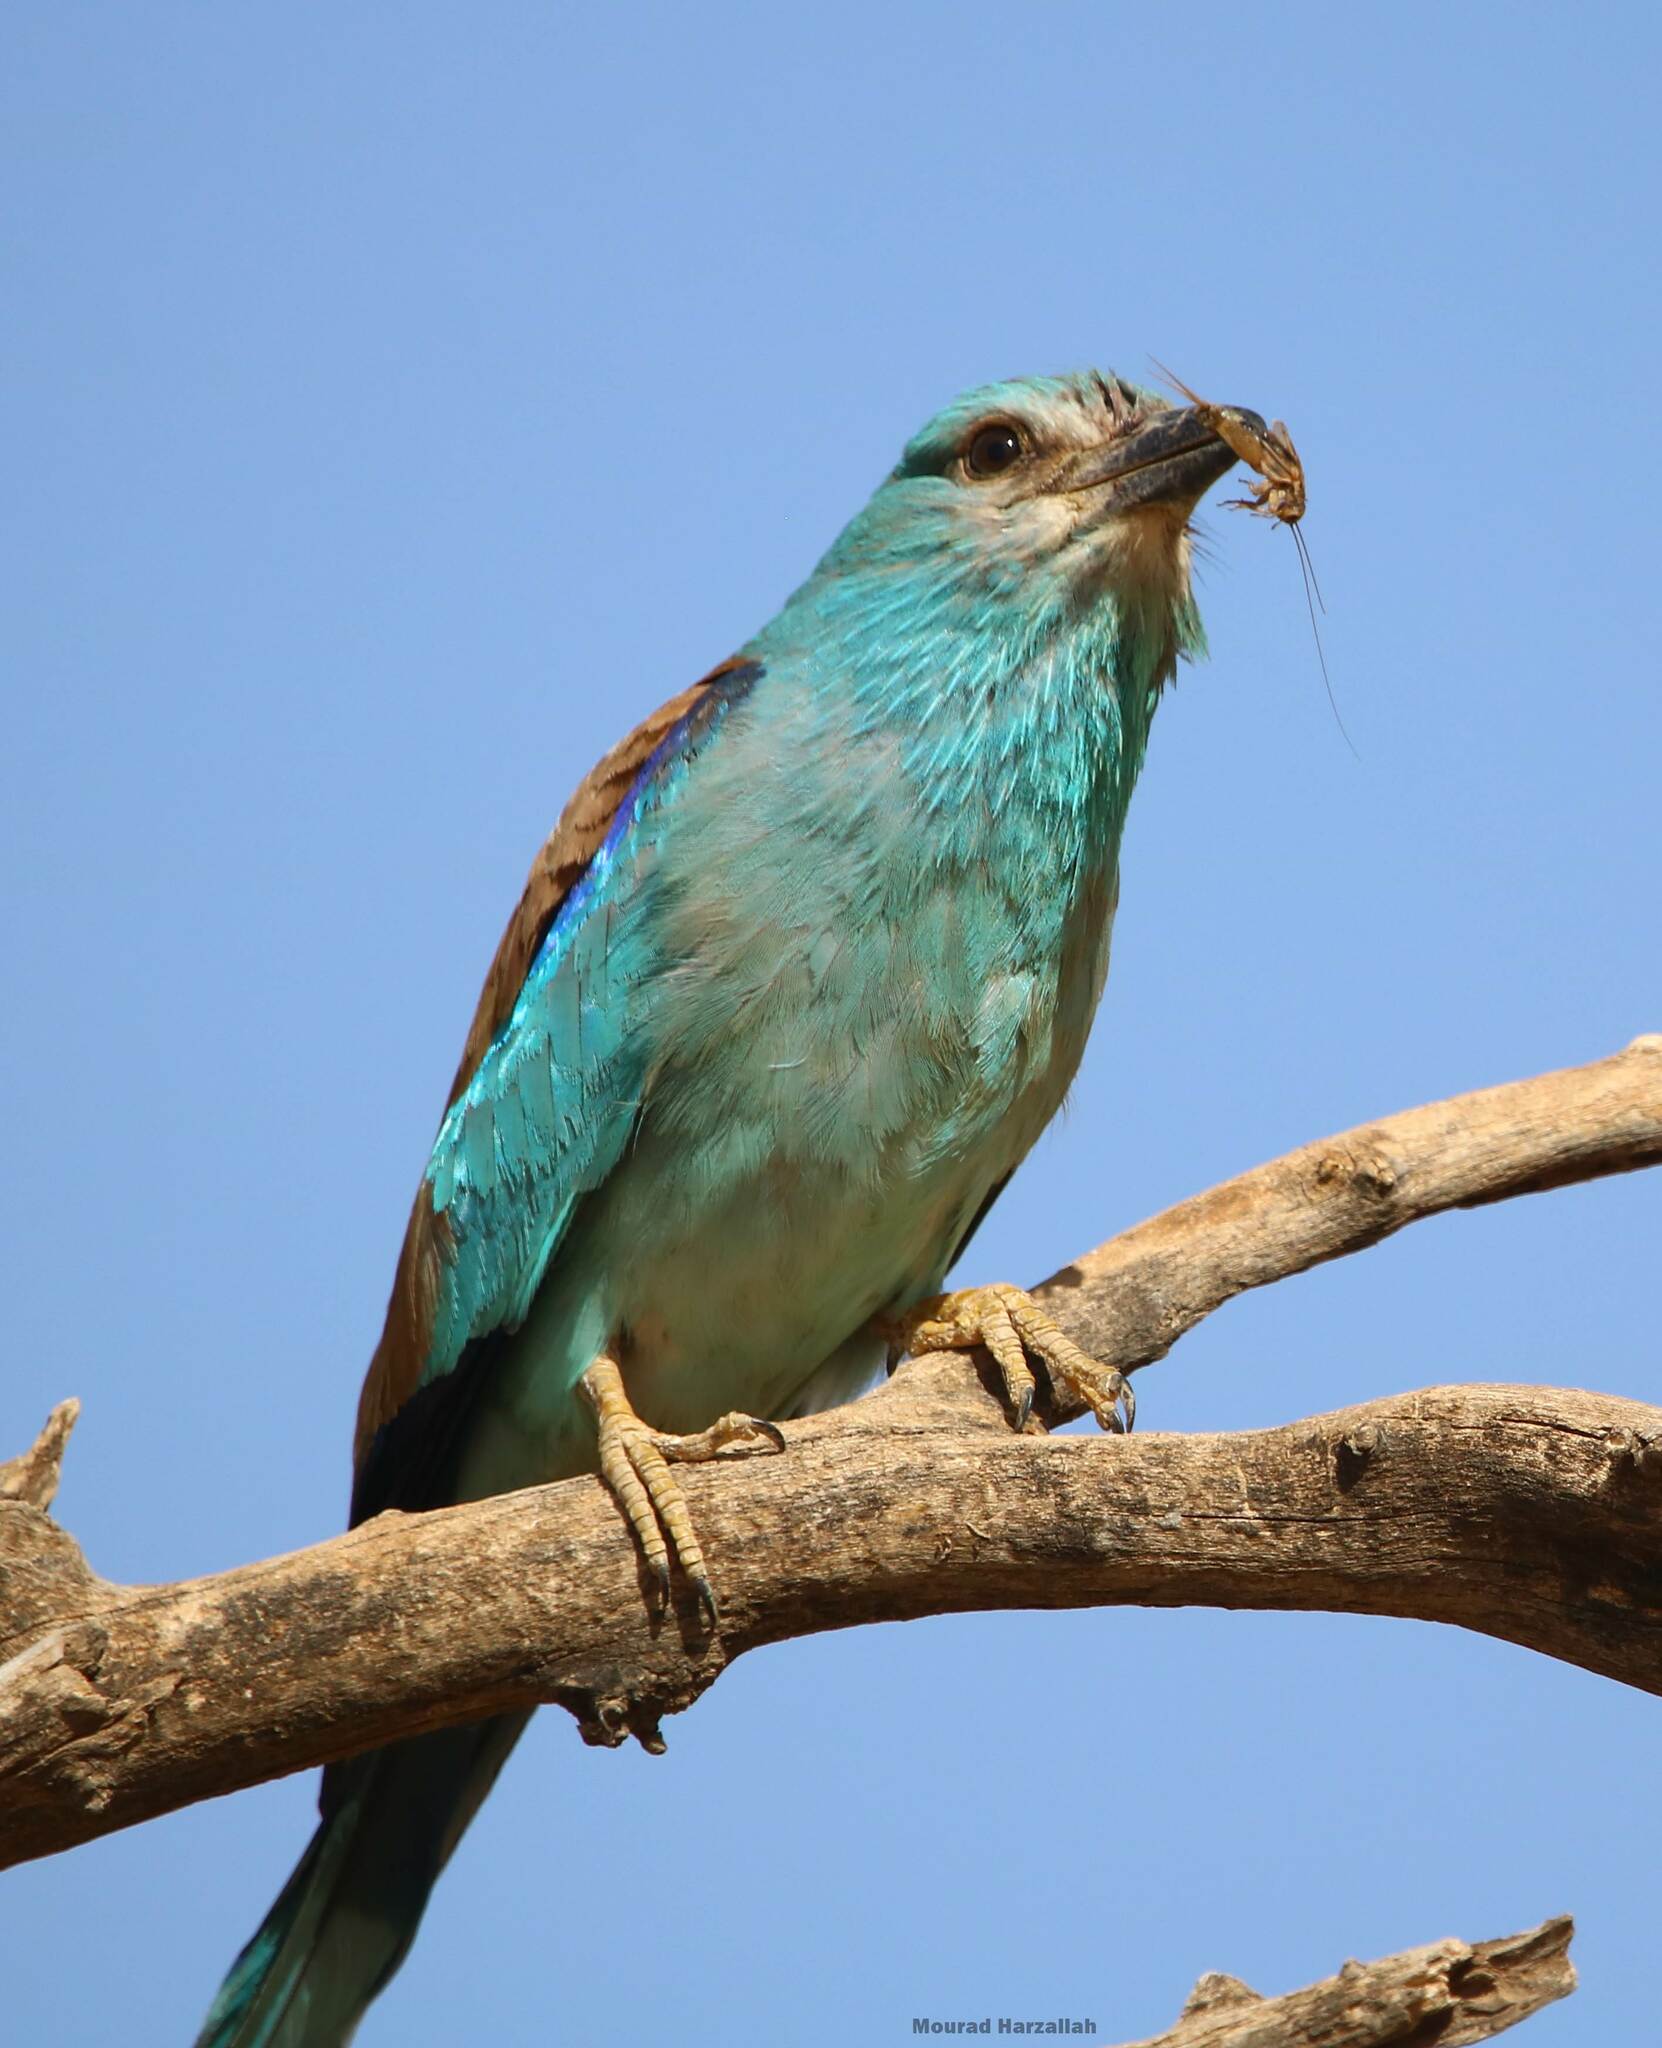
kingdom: Animalia
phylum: Chordata
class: Aves
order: Coraciiformes
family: Coraciidae
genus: Coracias
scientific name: Coracias garrulus
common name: European roller
